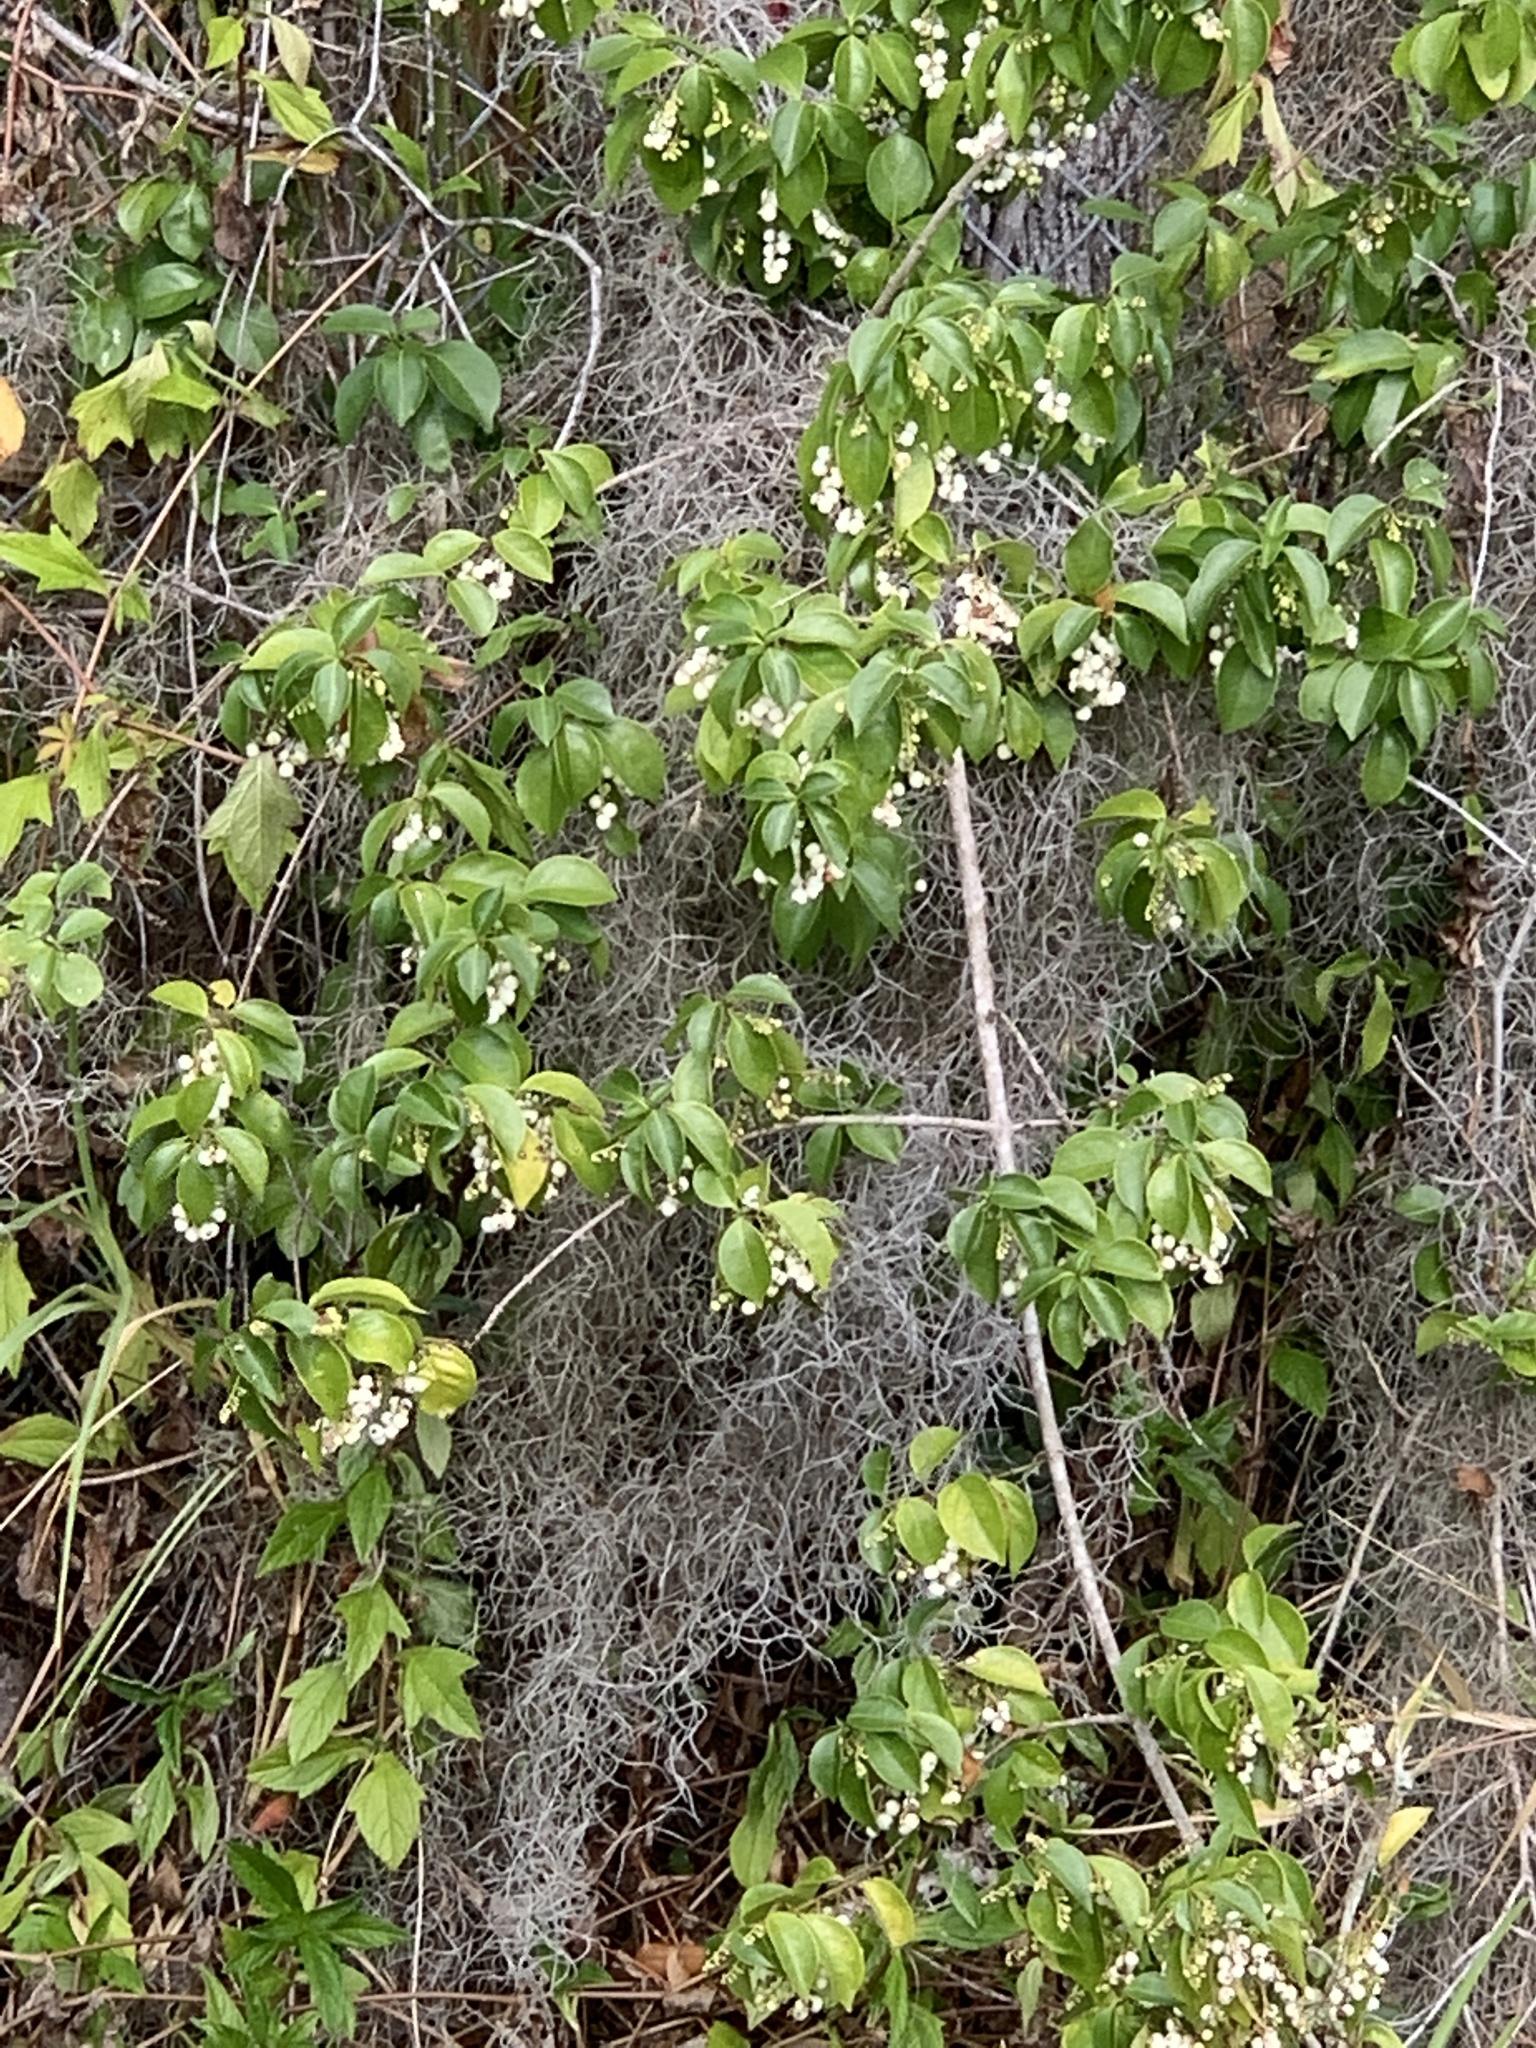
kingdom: Plantae
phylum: Tracheophyta
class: Magnoliopsida
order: Gentianales
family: Rubiaceae
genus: Chiococca
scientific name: Chiococca alba
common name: Snowberry
